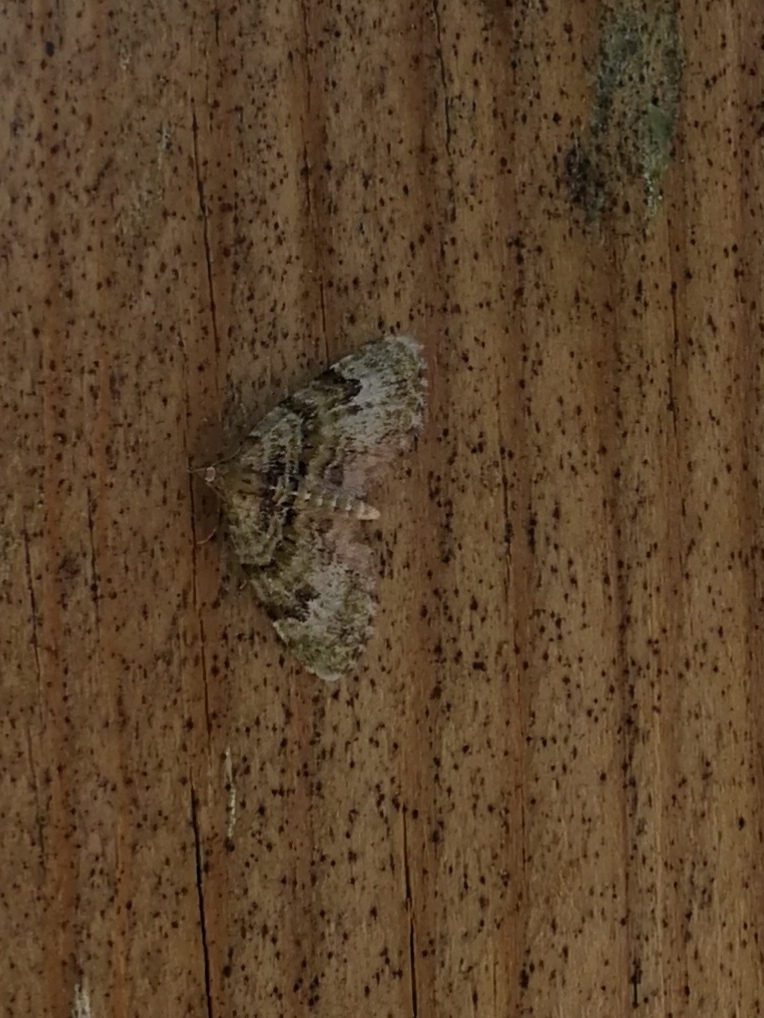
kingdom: Animalia
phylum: Arthropoda
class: Insecta
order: Lepidoptera
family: Geometridae
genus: Chloroclystis
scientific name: Chloroclystis v-ata
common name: V-pug
